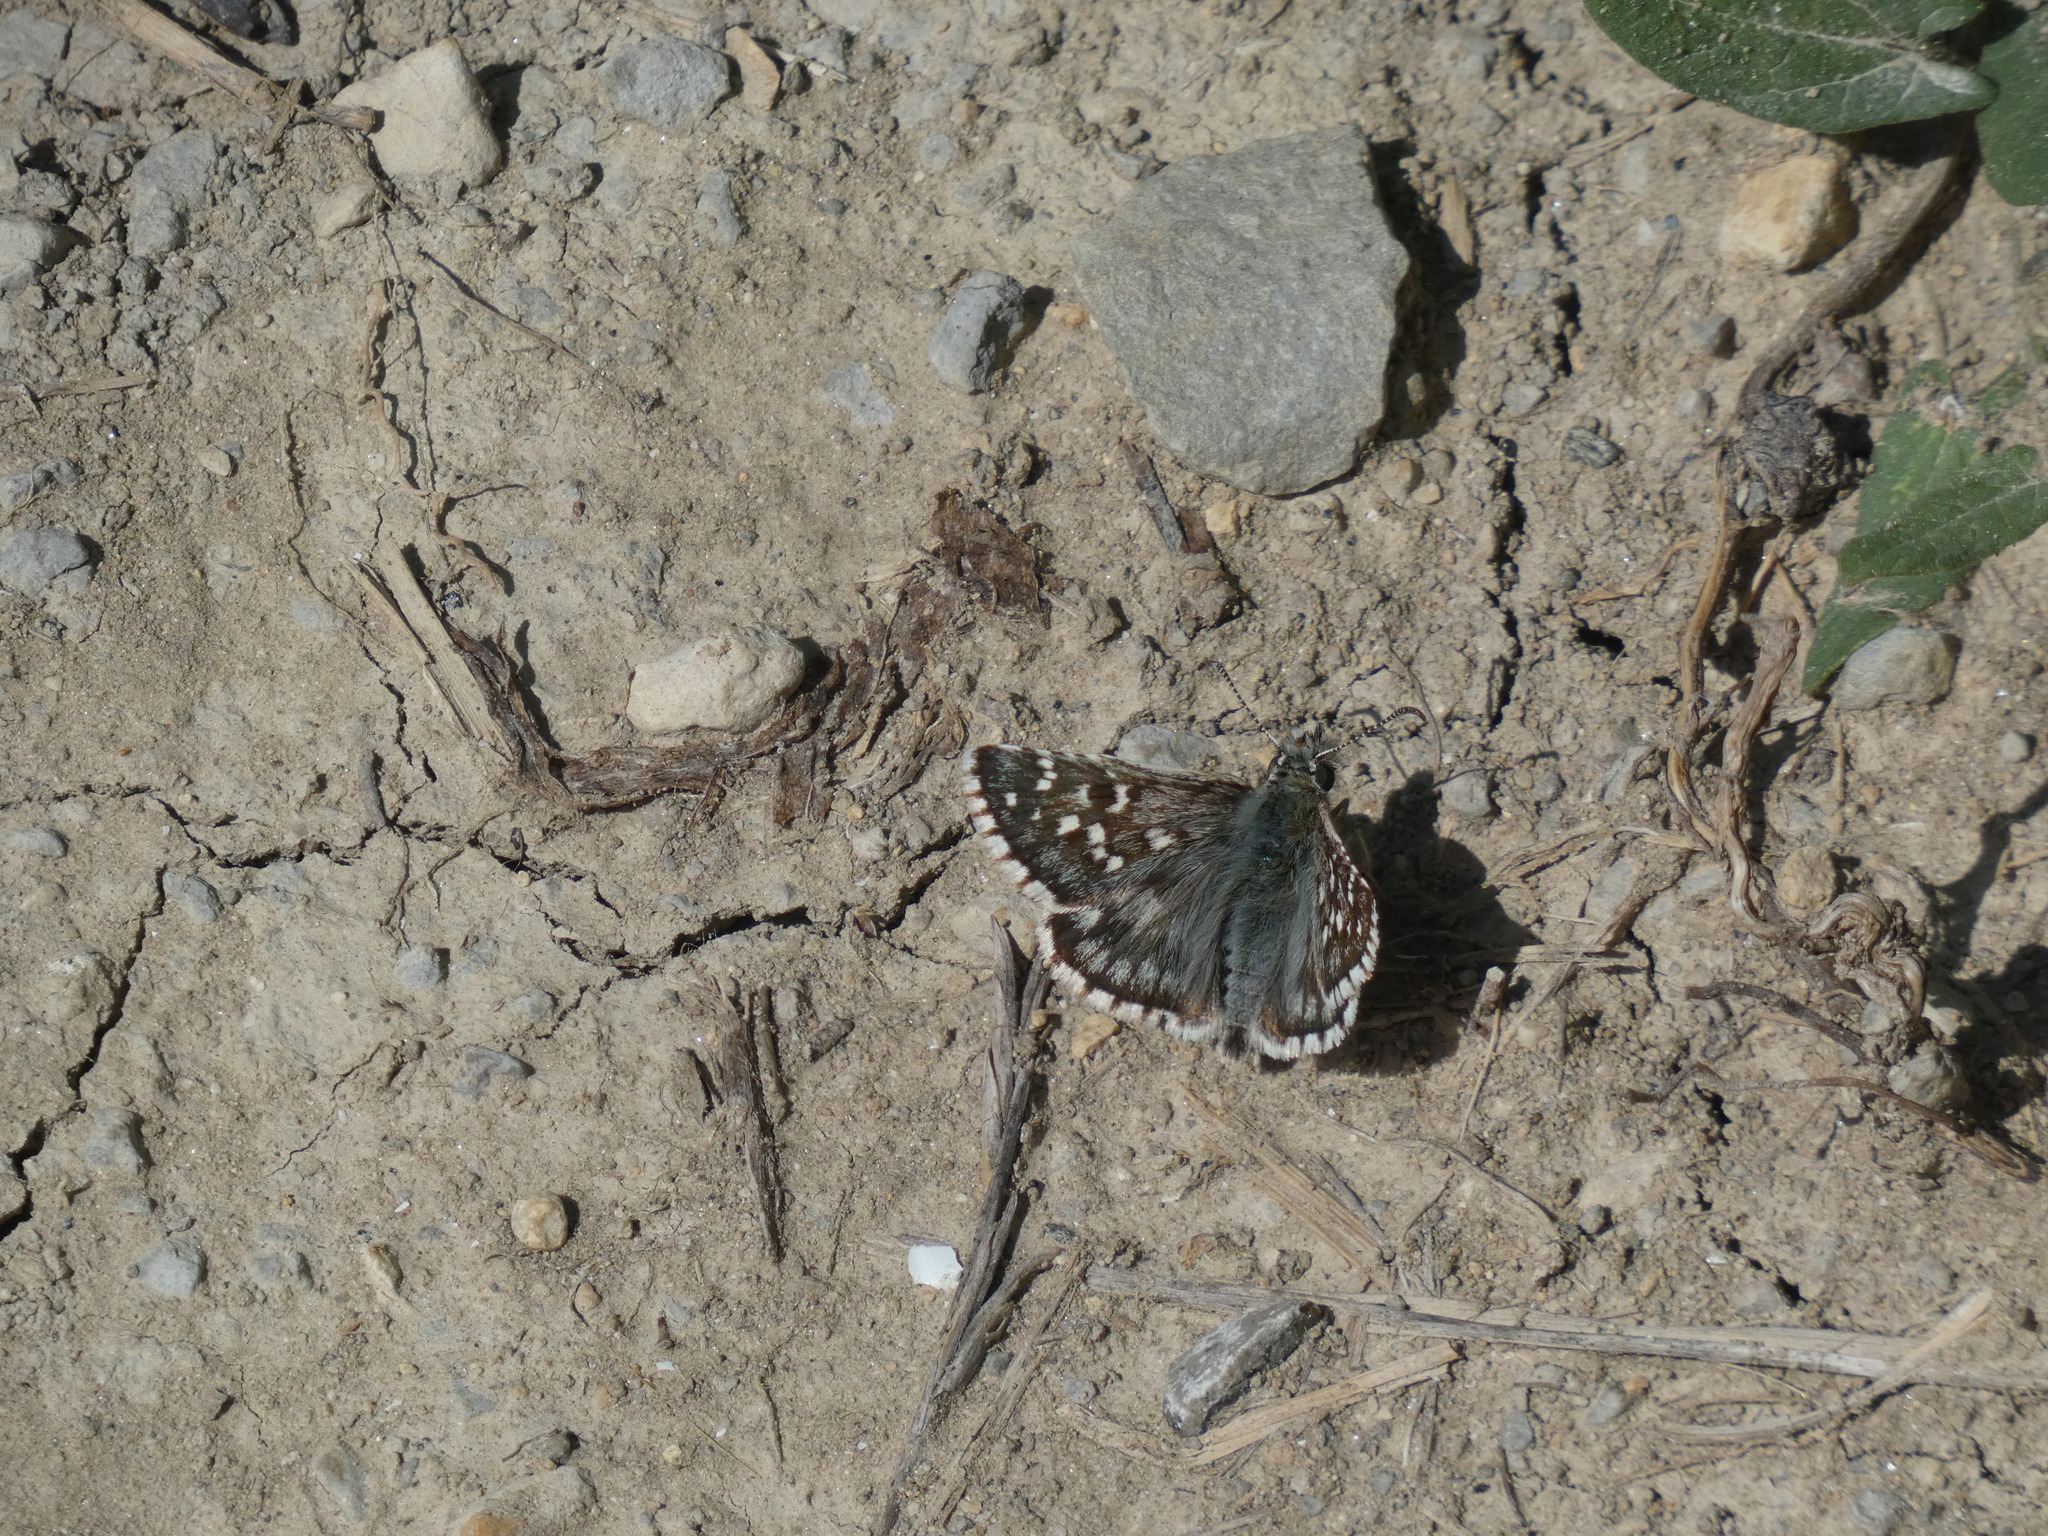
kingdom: Animalia
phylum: Arthropoda
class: Insecta
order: Lepidoptera
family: Hesperiidae
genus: Pyrgus
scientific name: Pyrgus onopordi
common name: Rosy grizzled skipper
